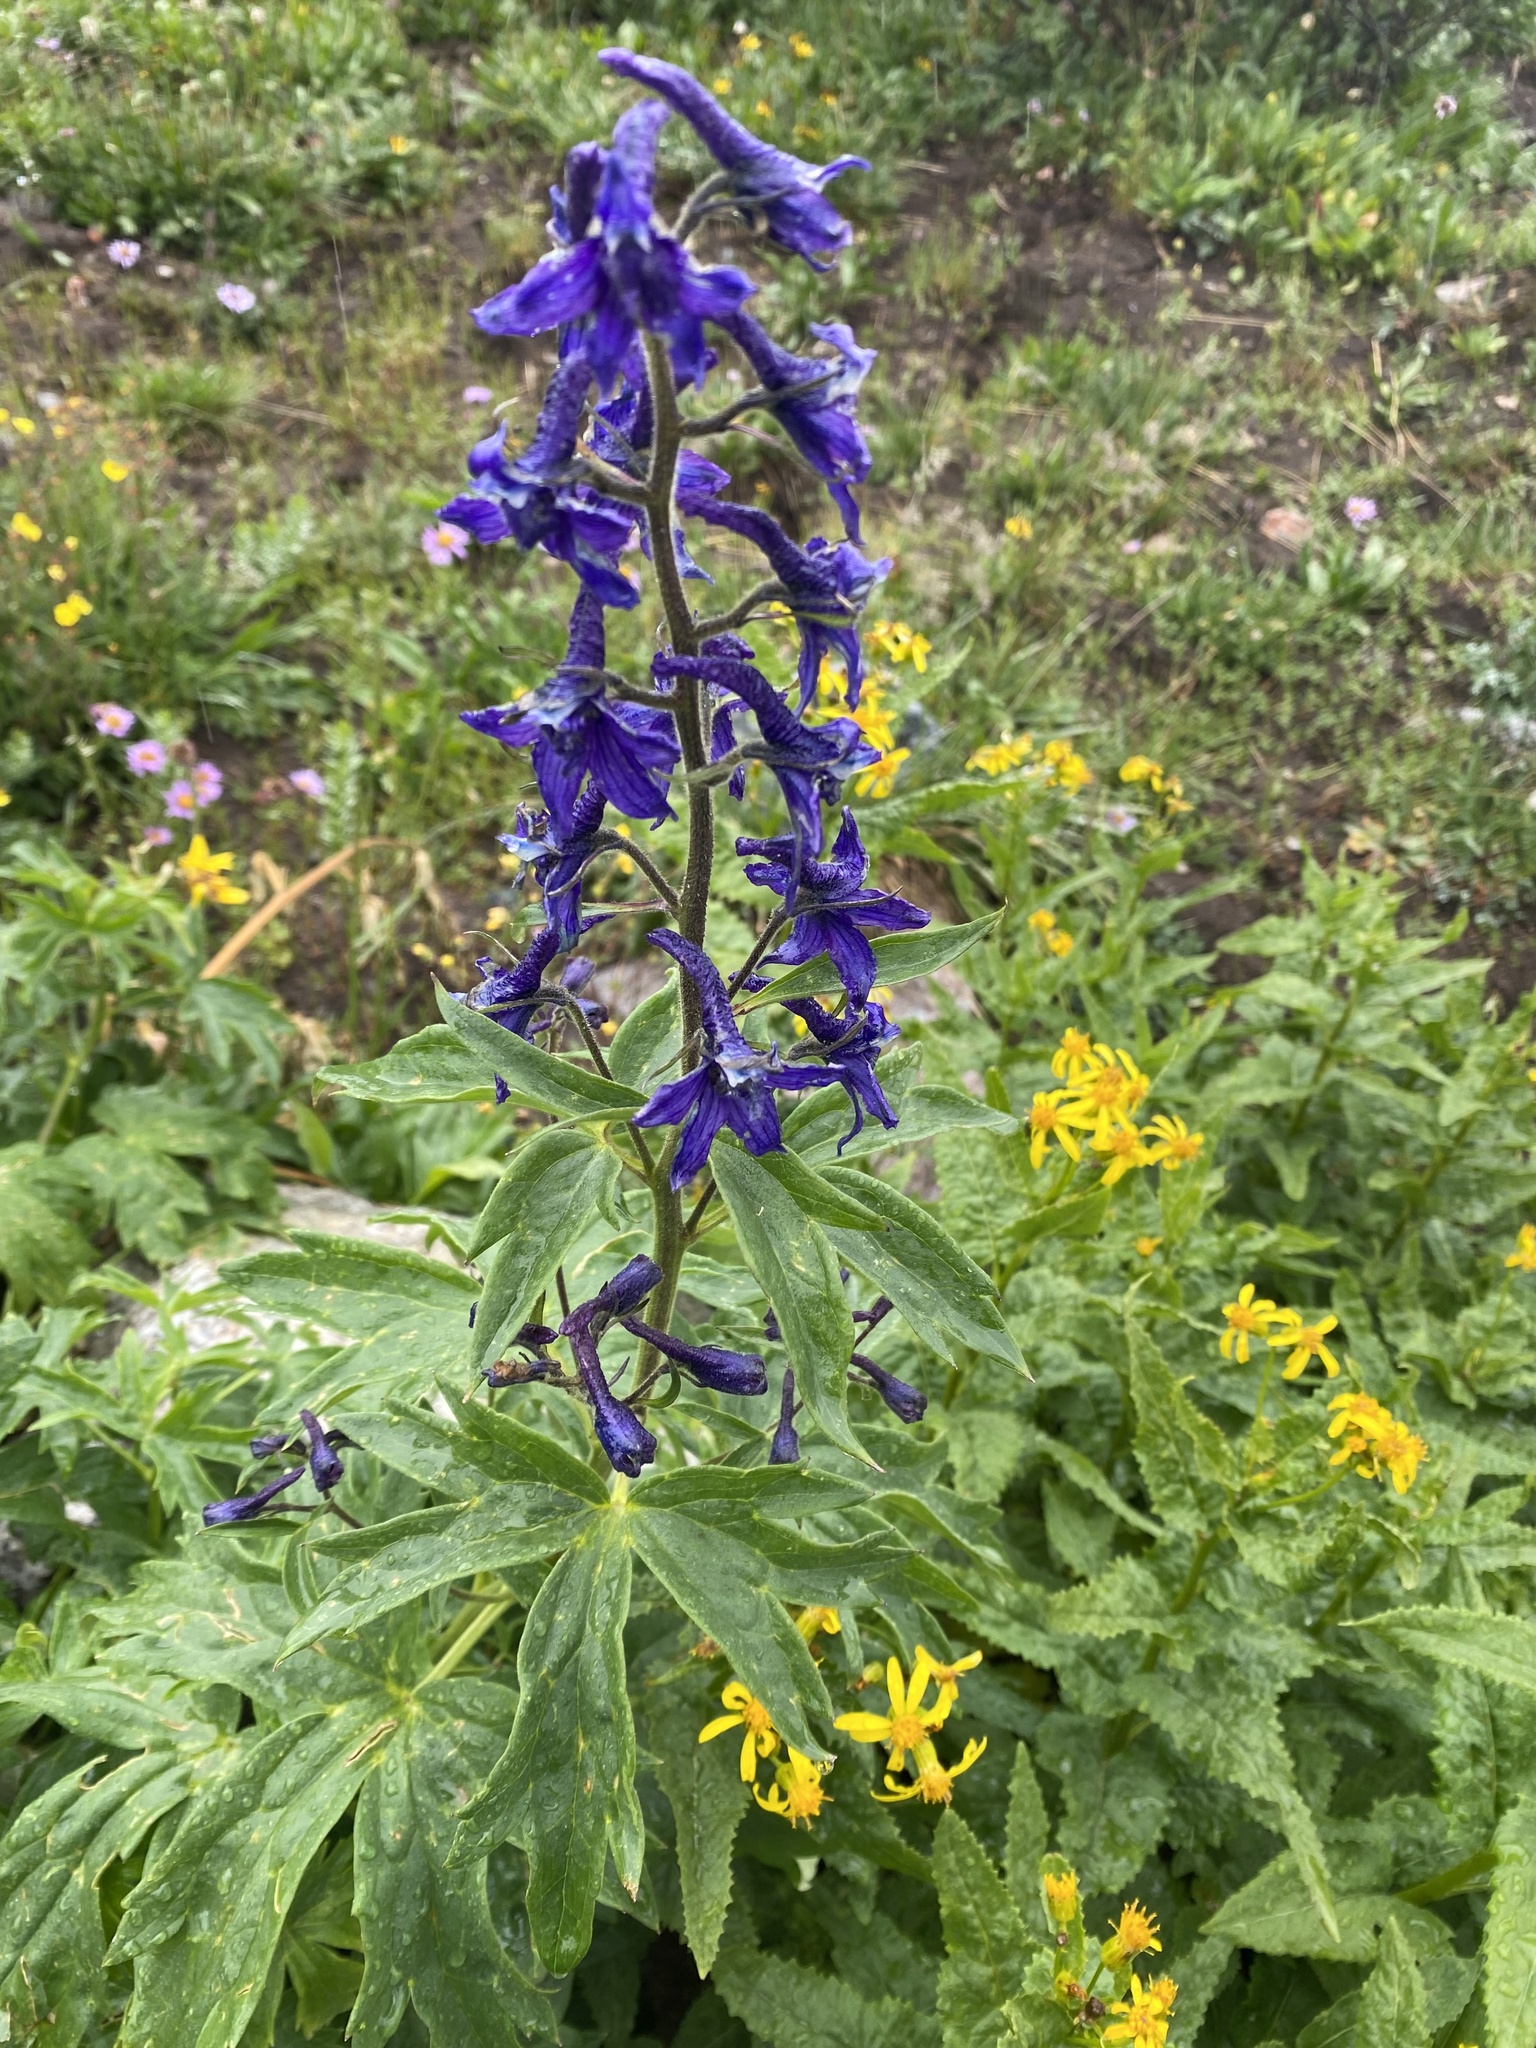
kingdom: Plantae
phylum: Tracheophyta
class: Magnoliopsida
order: Ranunculales
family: Ranunculaceae
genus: Delphinium
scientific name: Delphinium barbeyi
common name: Subalpine larkspur
